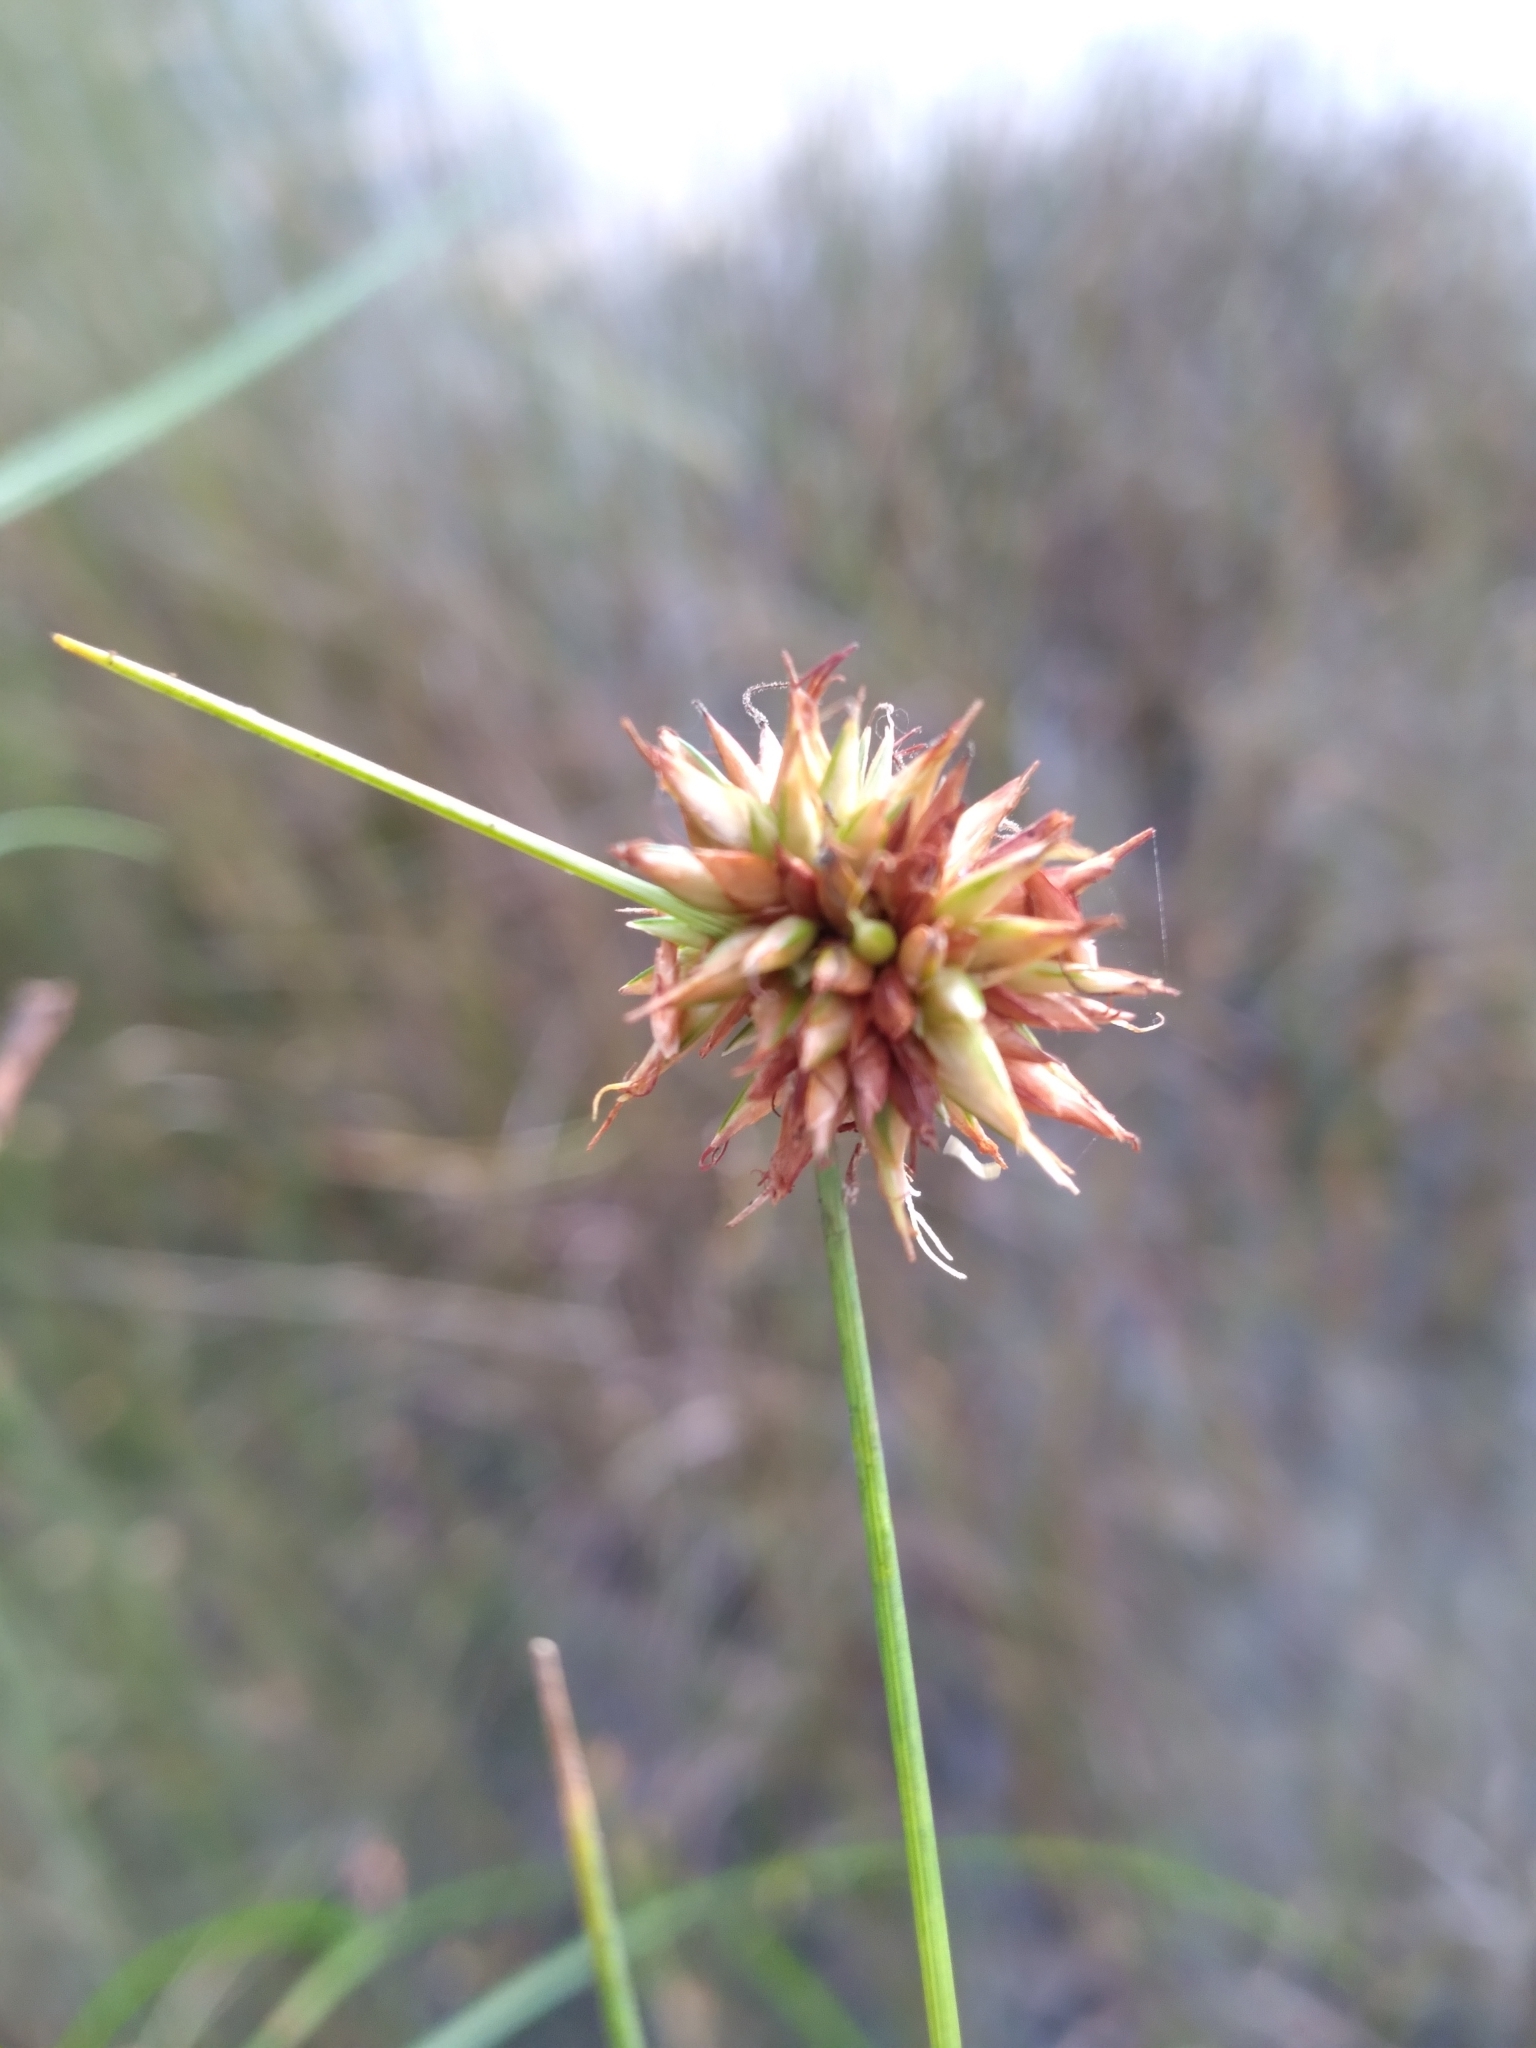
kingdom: Plantae
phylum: Tracheophyta
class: Liliopsida
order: Poales
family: Cyperaceae
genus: Rhynchospora
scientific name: Rhynchospora tracyi
